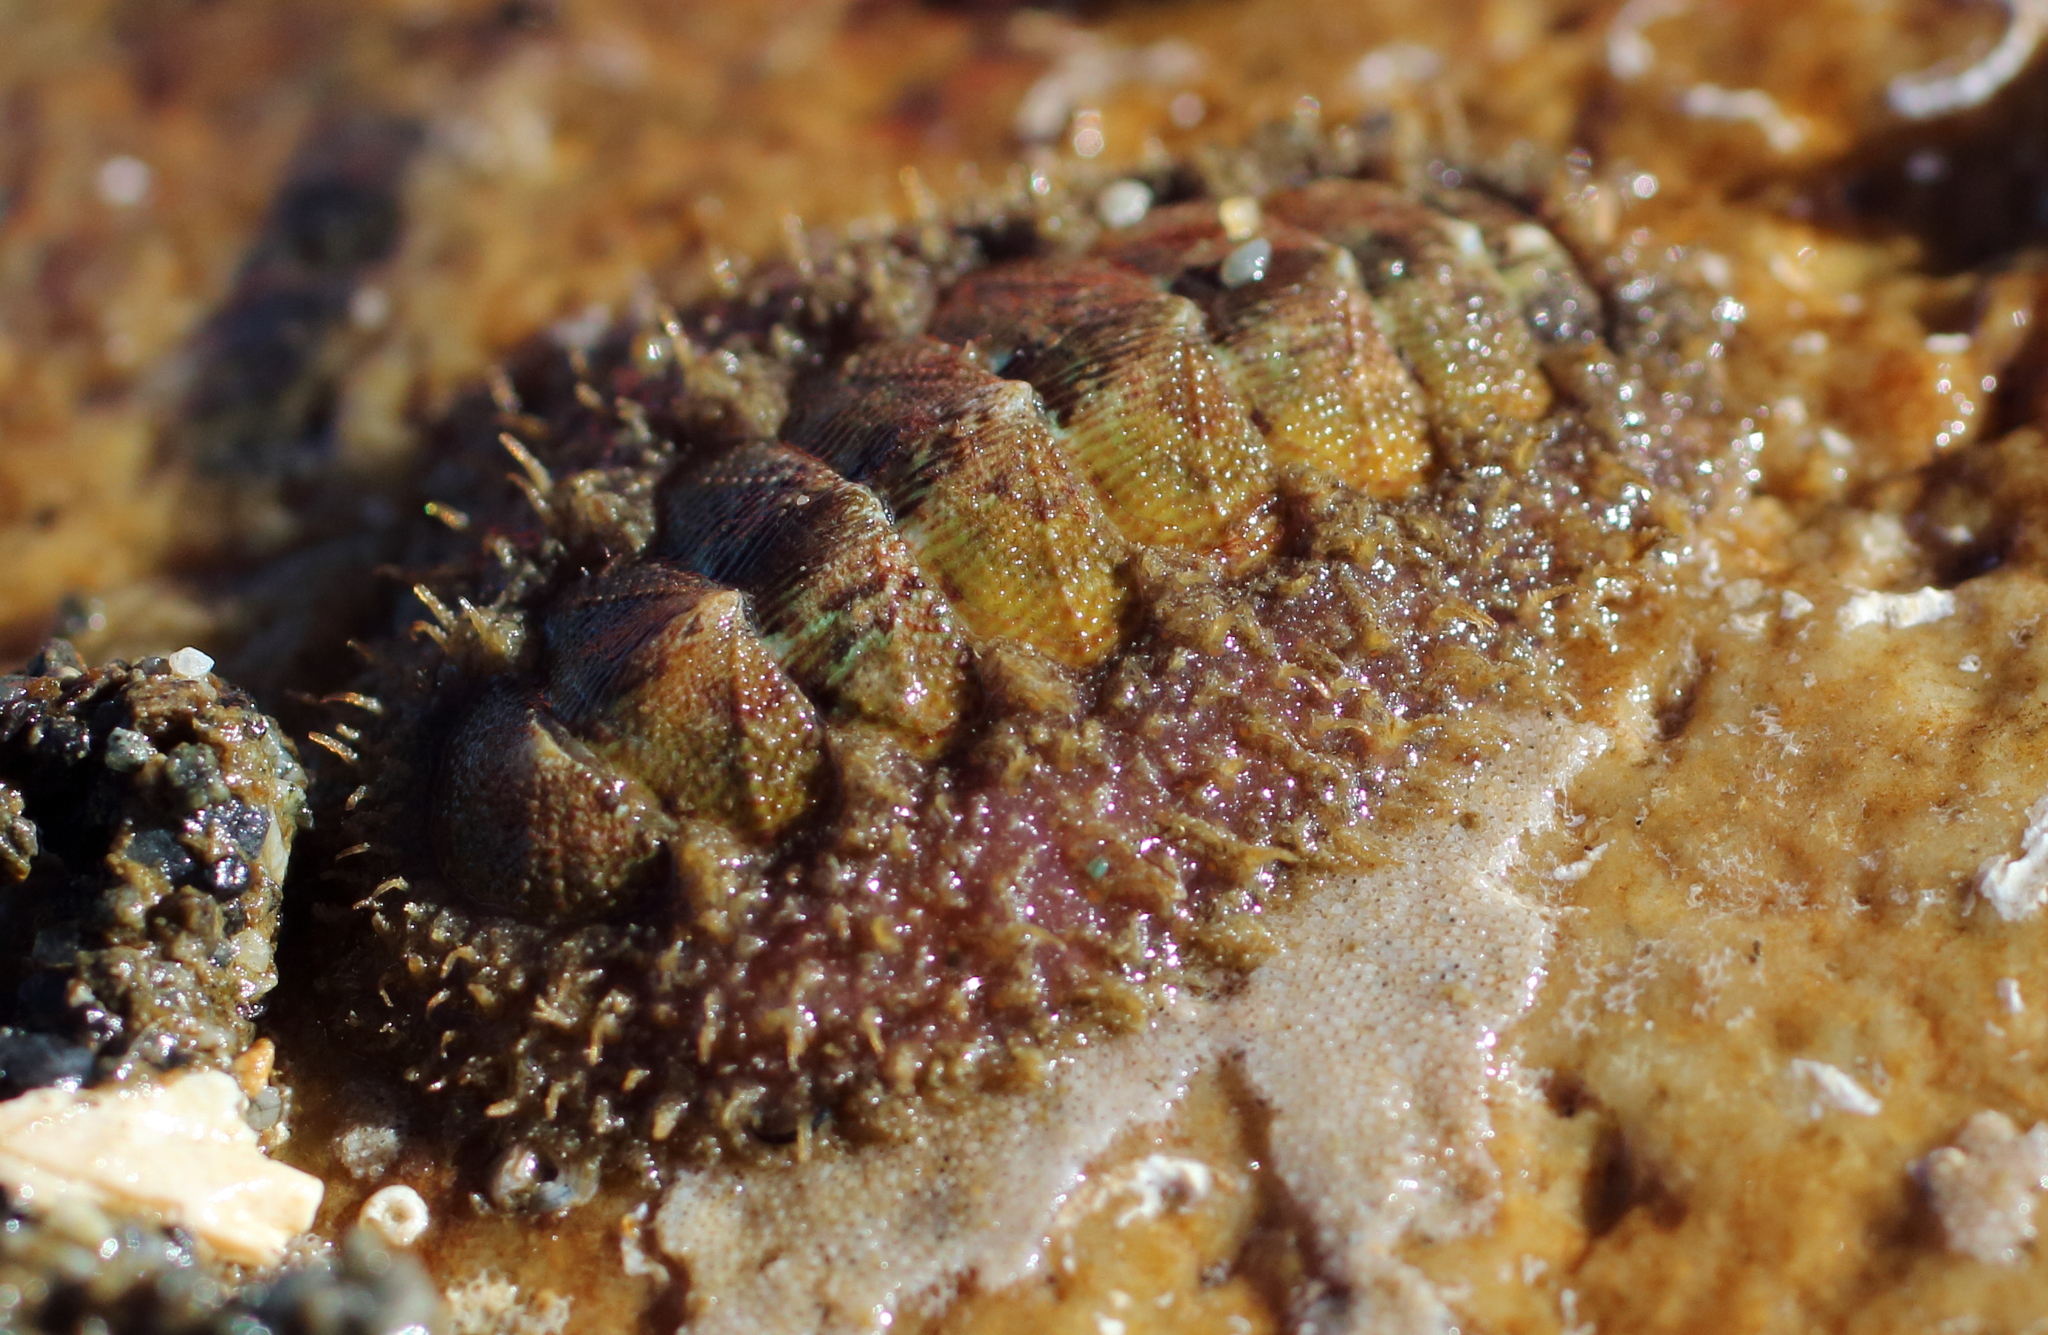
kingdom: Animalia
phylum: Mollusca
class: Polyplacophora
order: Chitonida
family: Mopaliidae
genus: Mopalia
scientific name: Mopalia ciliata
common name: Hairy chiton
